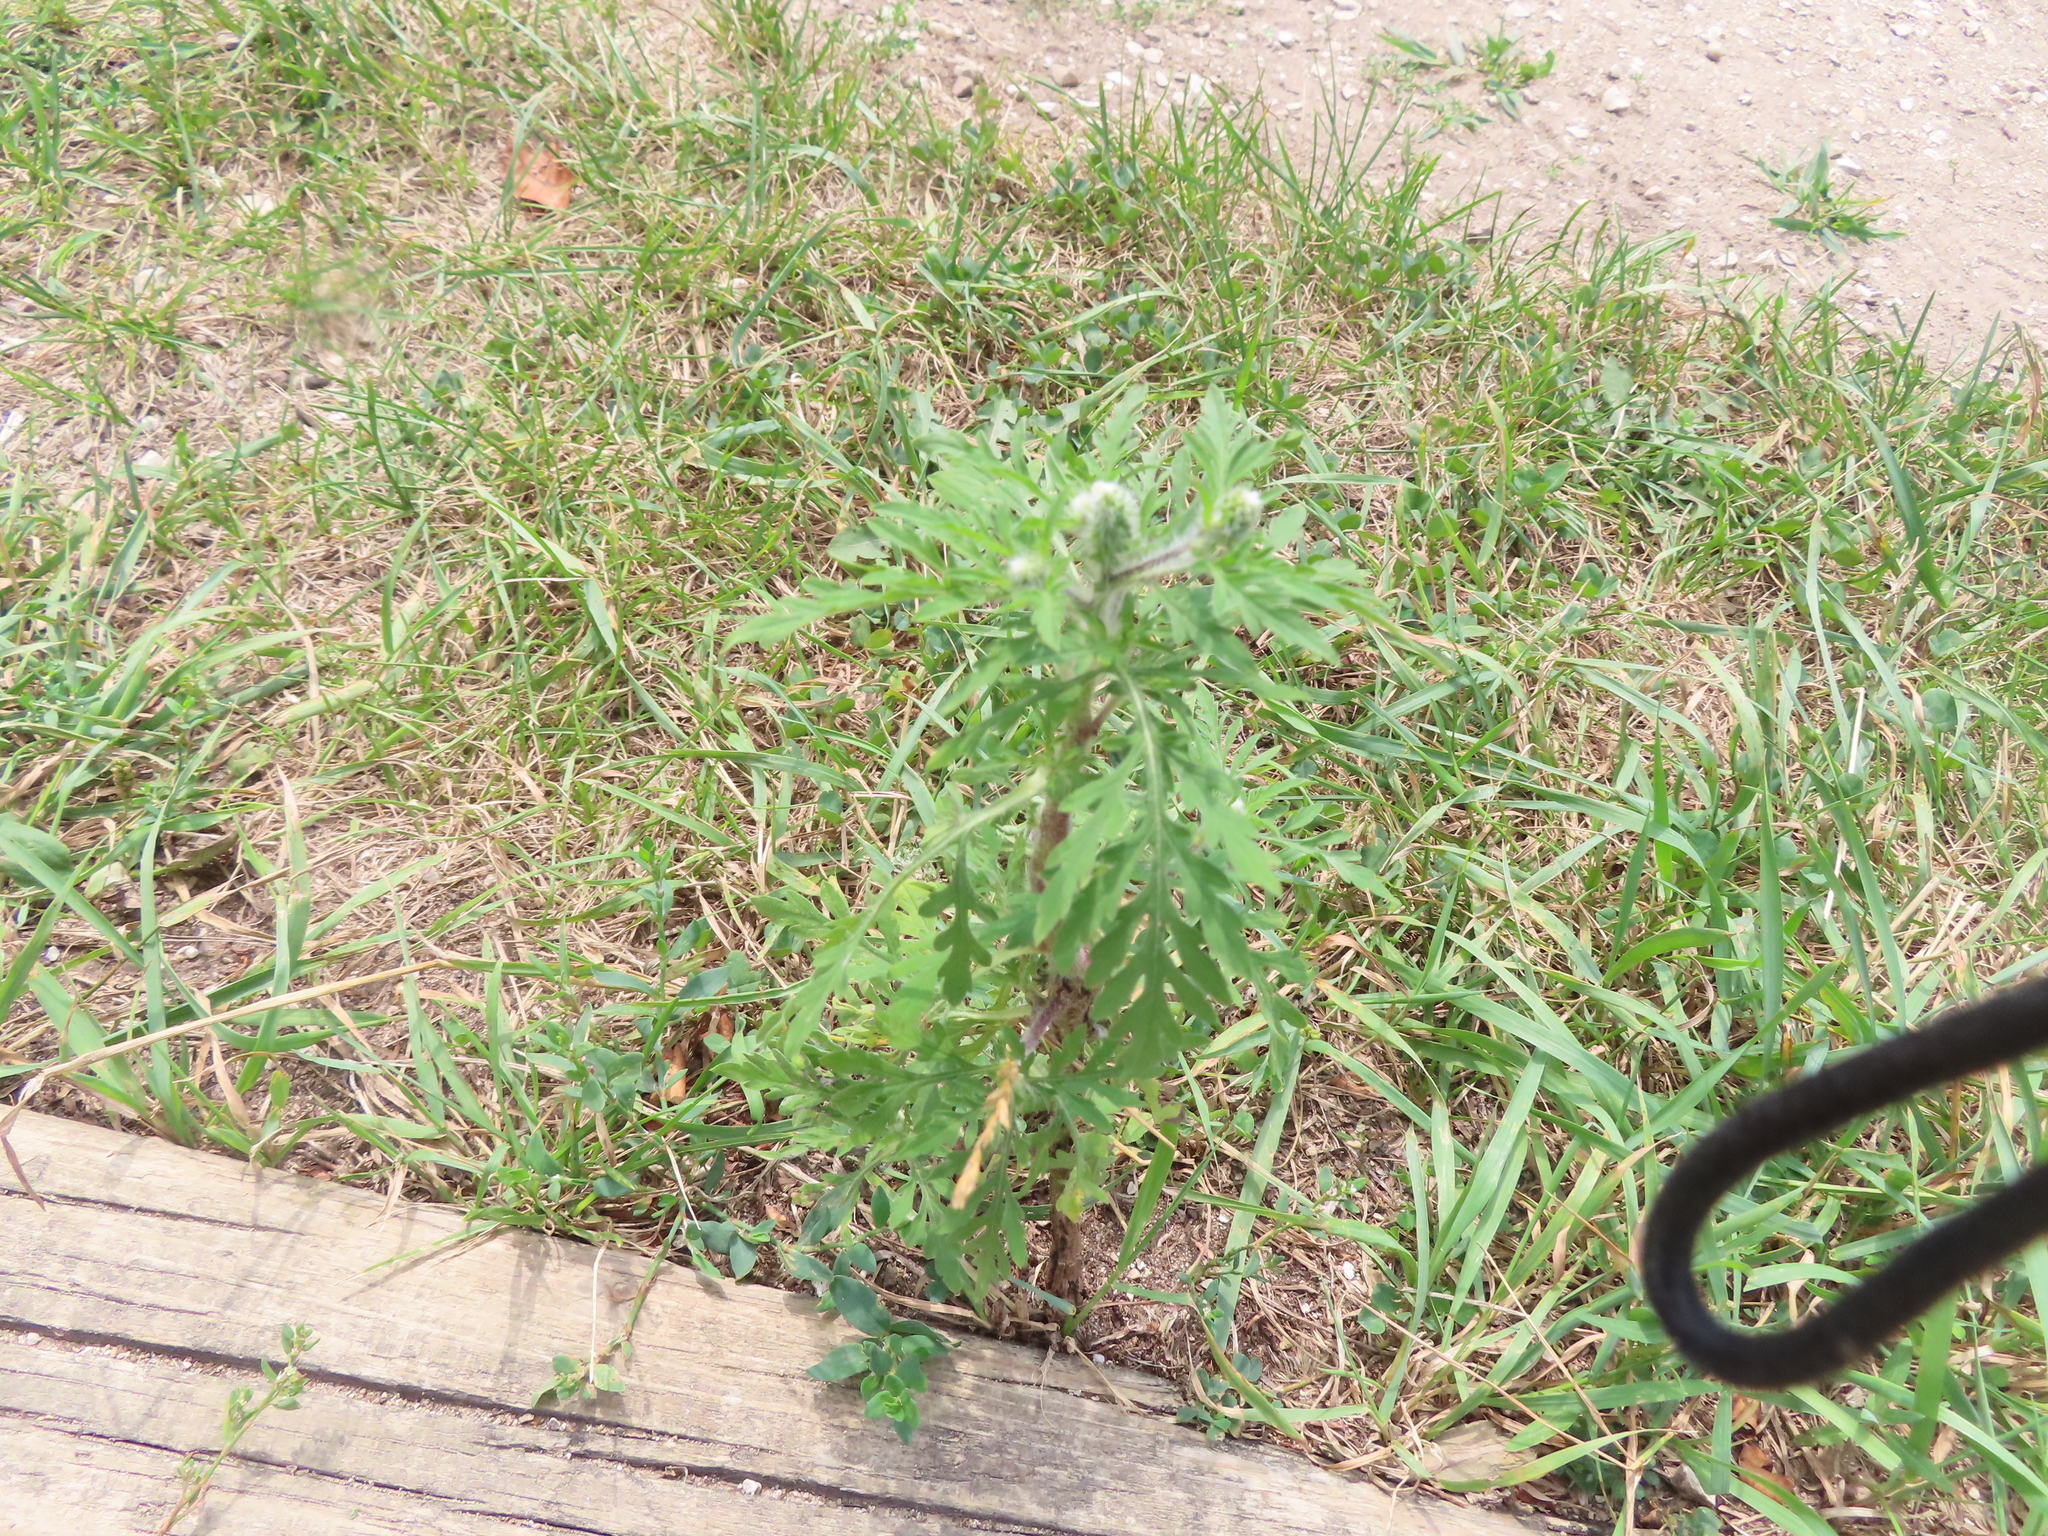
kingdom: Plantae
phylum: Tracheophyta
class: Magnoliopsida
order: Asterales
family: Asteraceae
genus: Ambrosia
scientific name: Ambrosia artemisiifolia
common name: Annual ragweed
